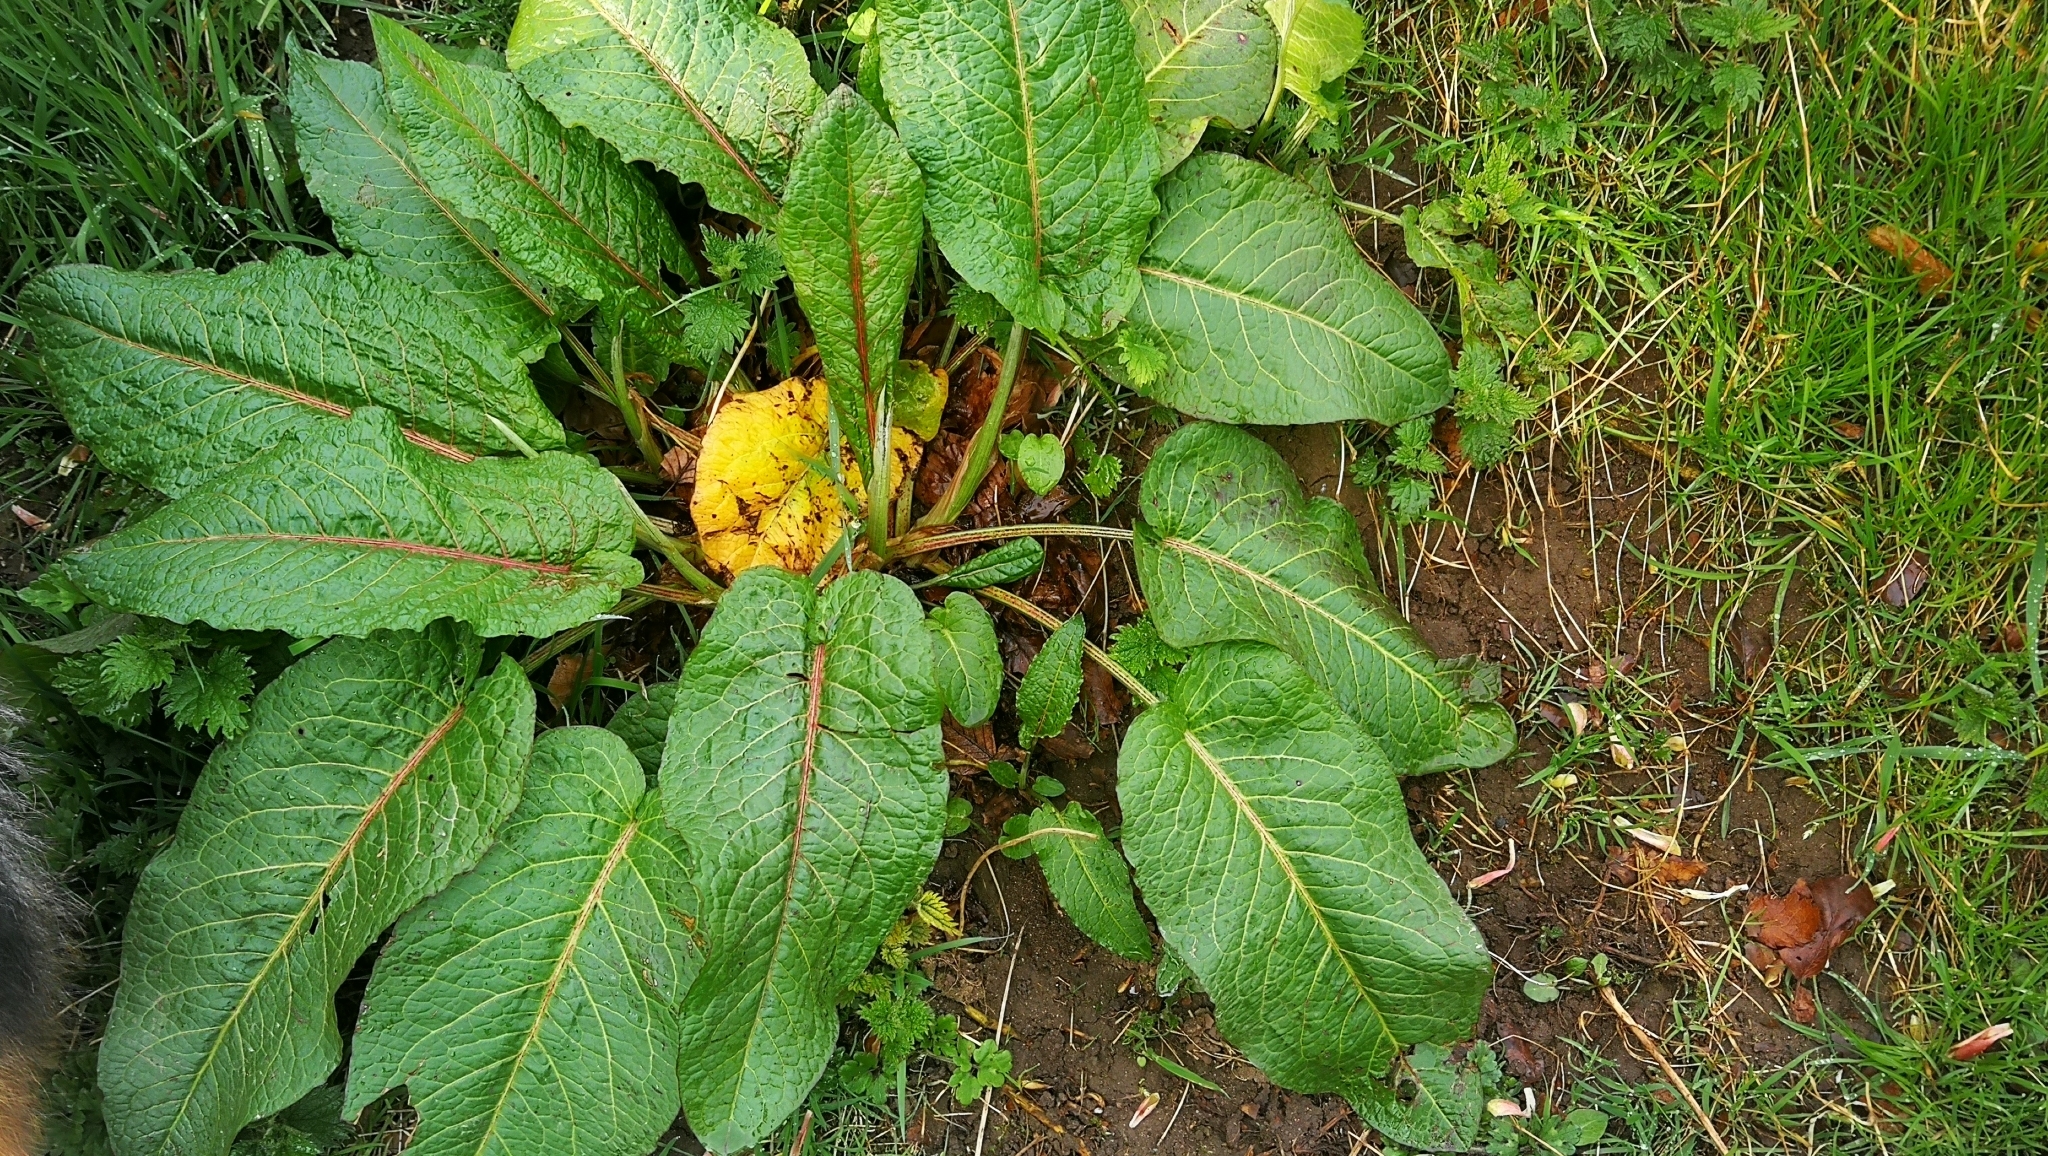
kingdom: Plantae
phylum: Tracheophyta
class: Magnoliopsida
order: Caryophyllales
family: Polygonaceae
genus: Rumex
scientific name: Rumex obtusifolius
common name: Bitter dock
